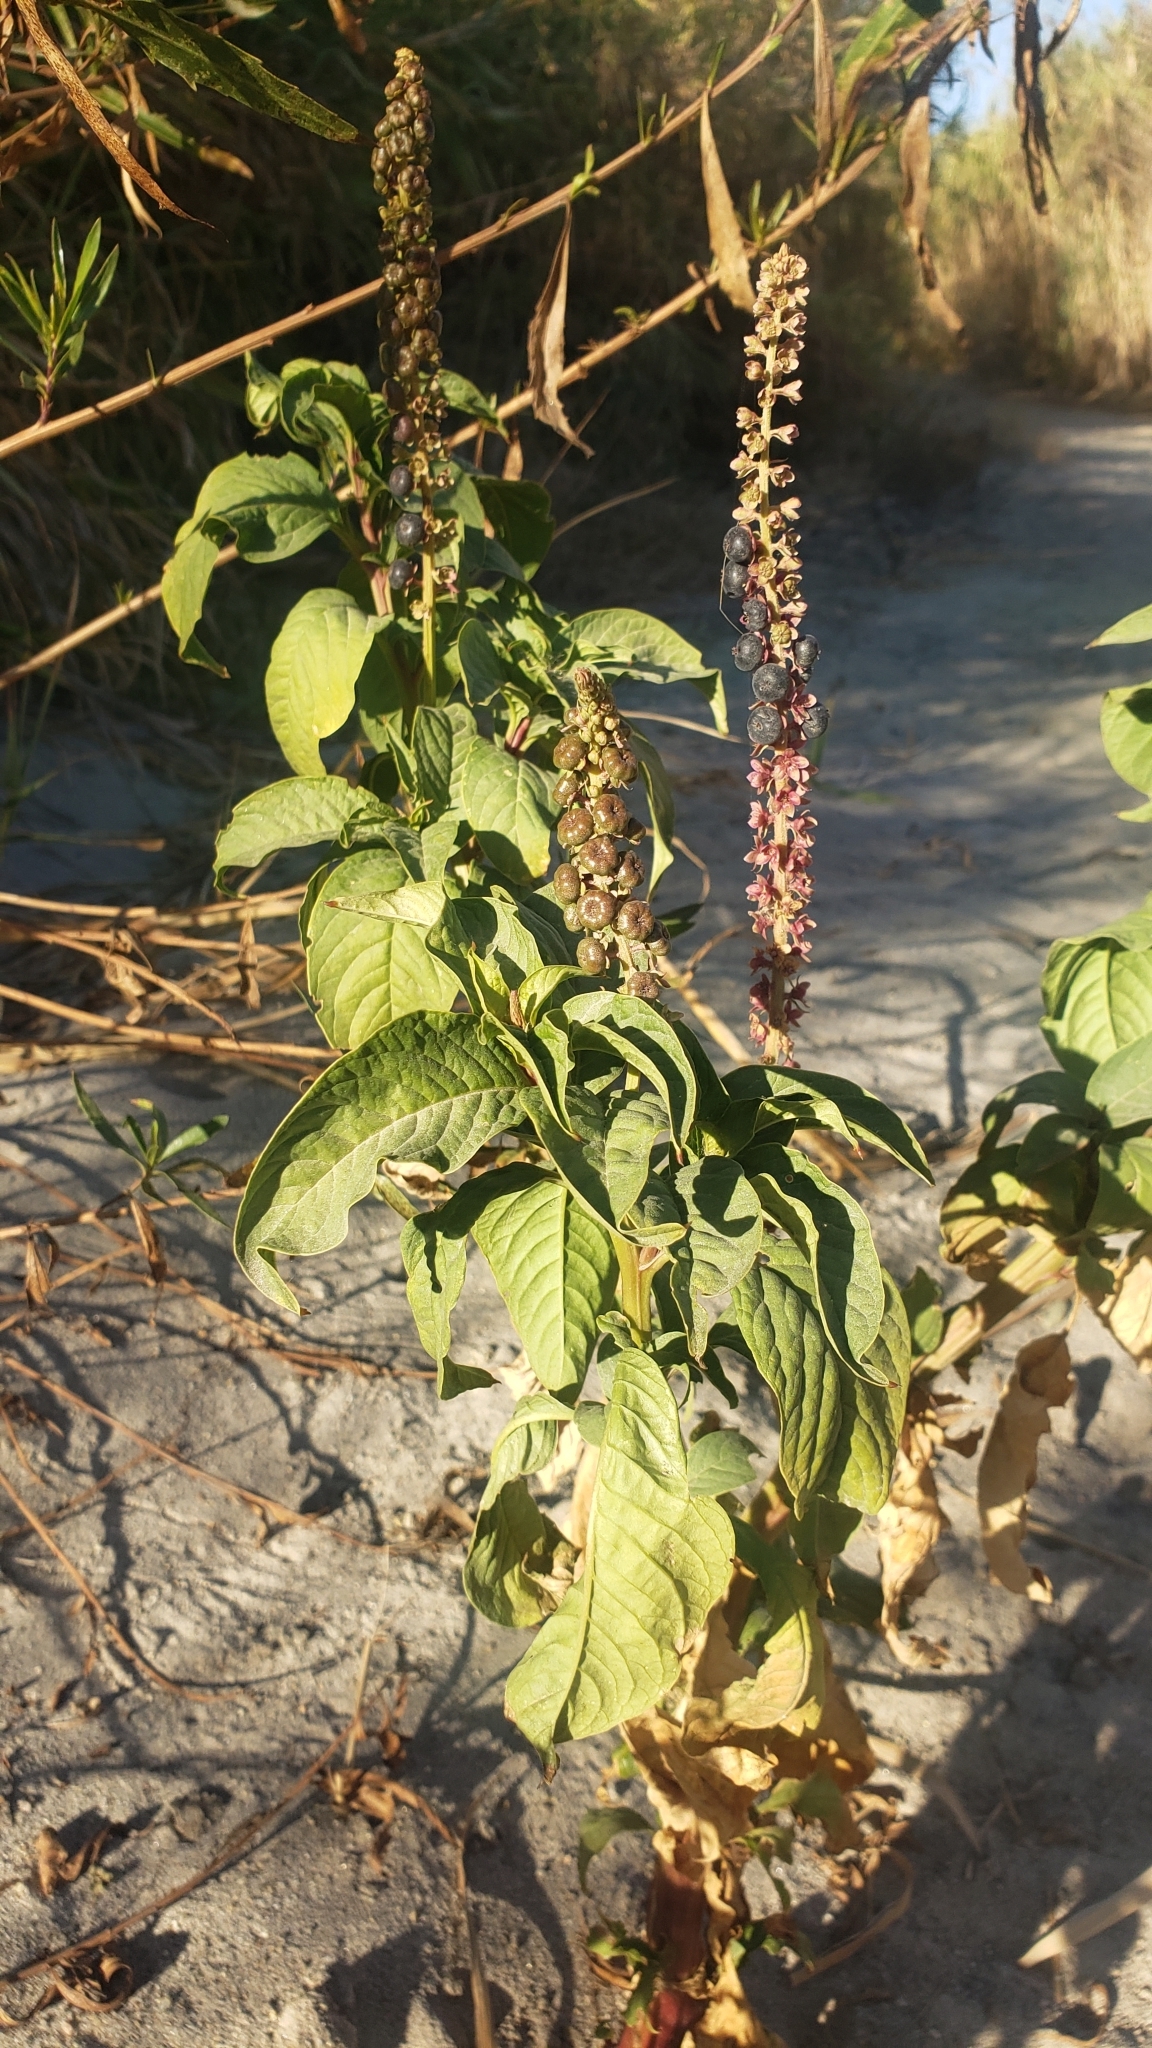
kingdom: Plantae
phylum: Tracheophyta
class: Magnoliopsida
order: Caryophyllales
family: Phytolaccaceae
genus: Phytolacca
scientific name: Phytolacca icosandra
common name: Button pokeweed
